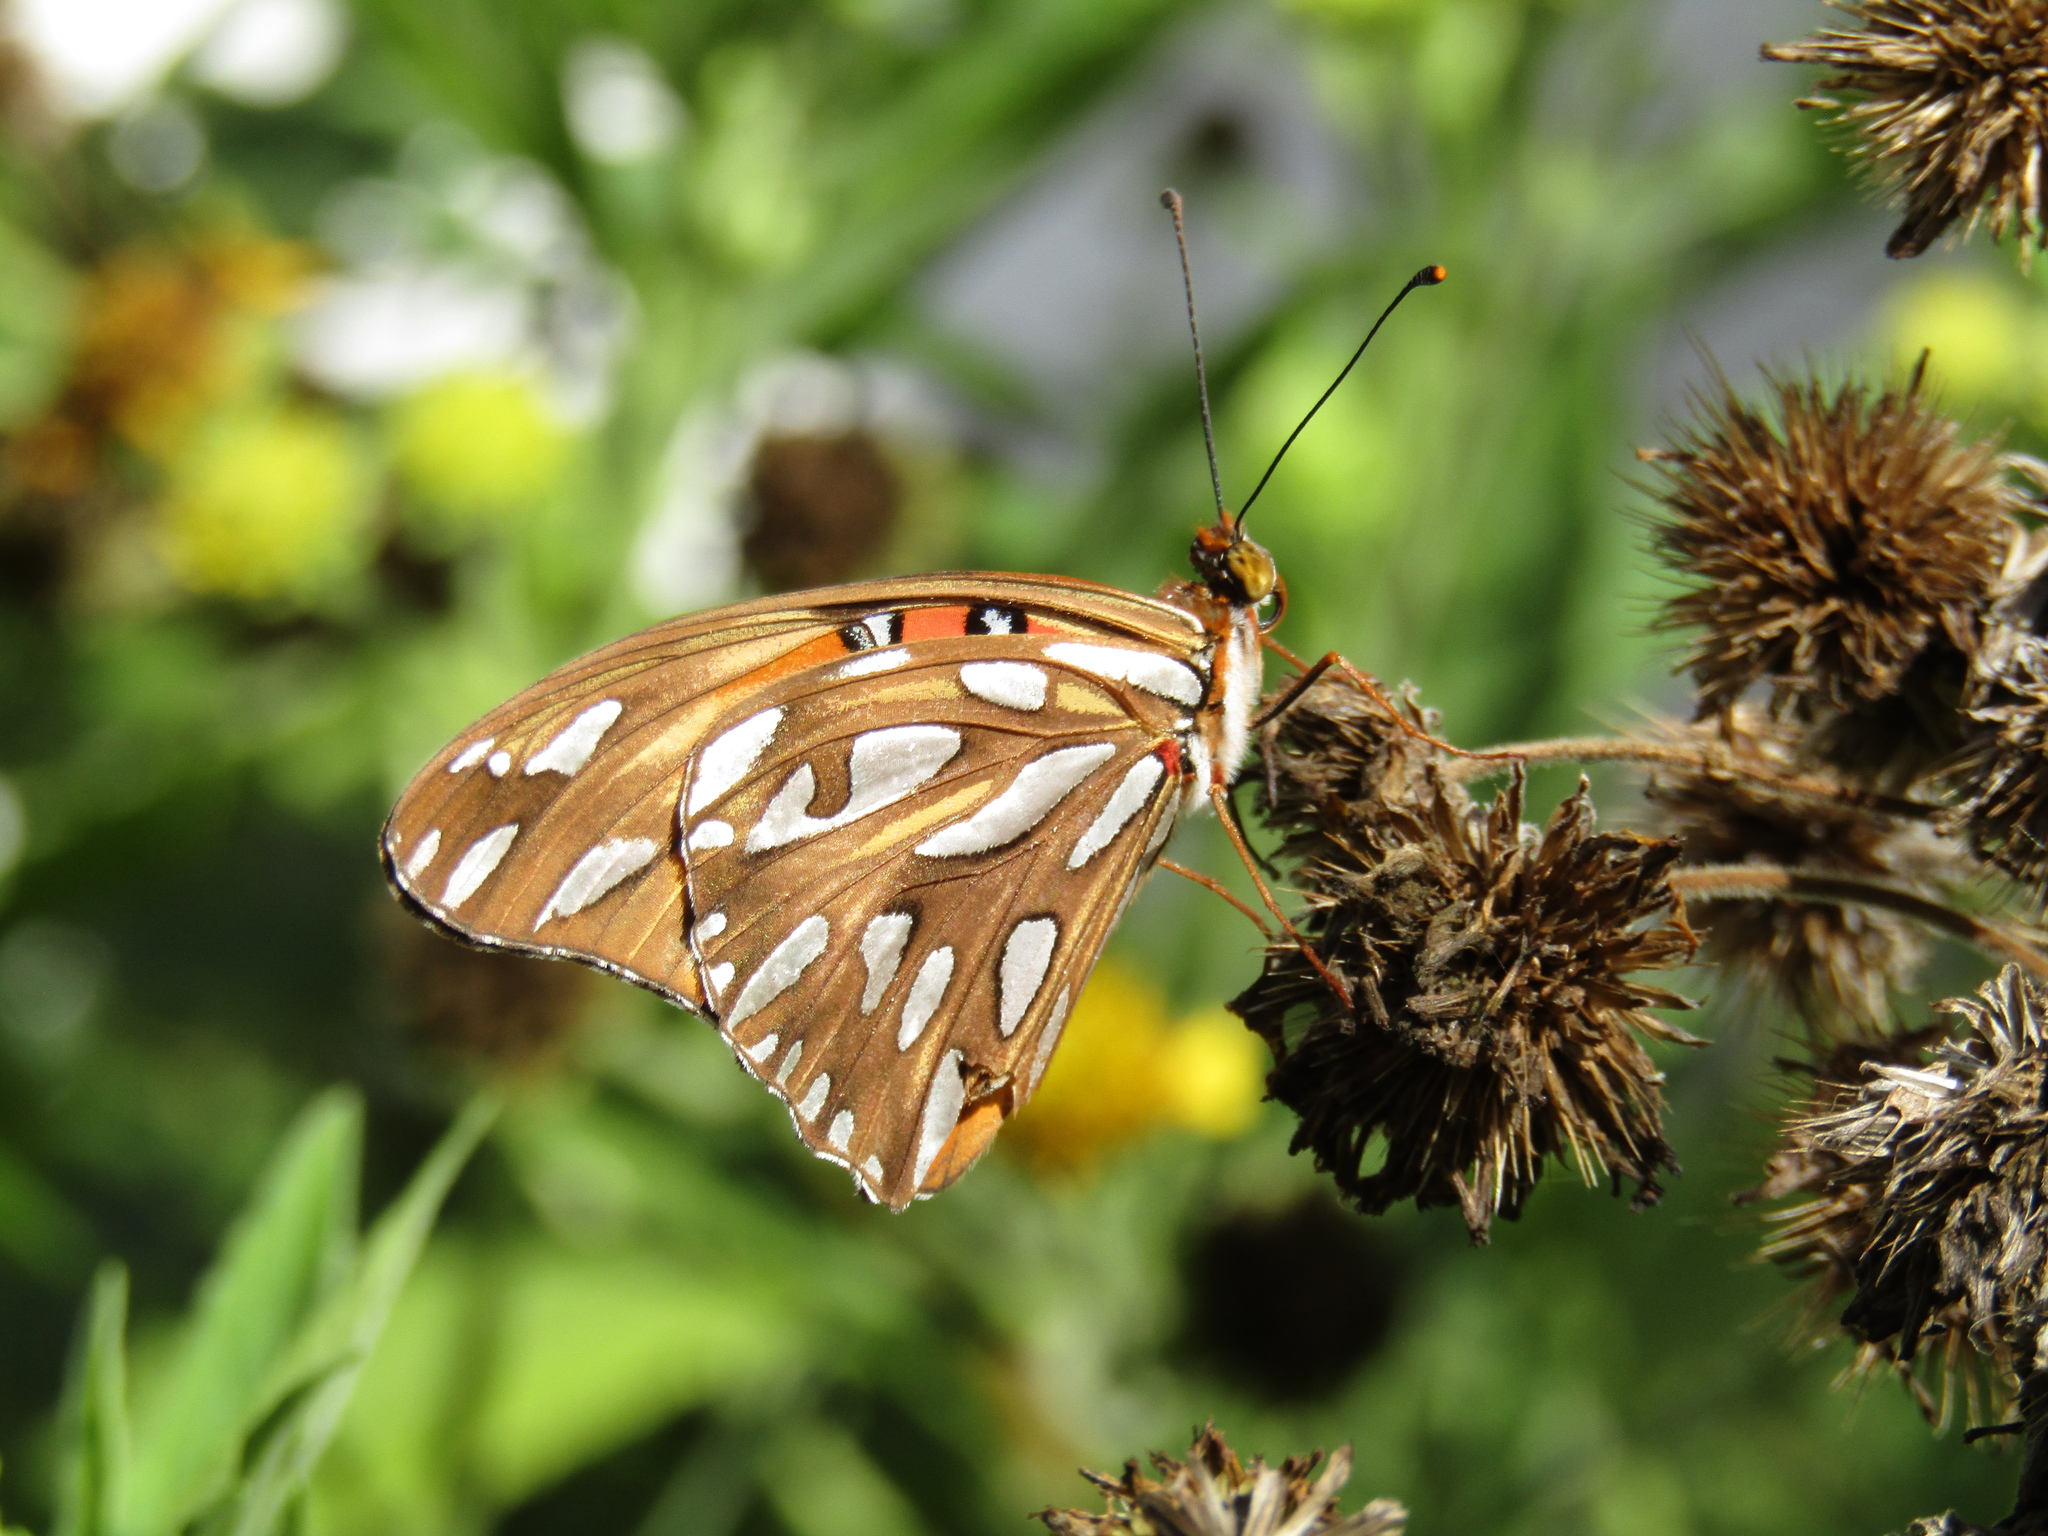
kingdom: Animalia
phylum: Arthropoda
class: Insecta
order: Lepidoptera
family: Nymphalidae
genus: Dione
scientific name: Dione vanillae
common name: Gulf fritillary
